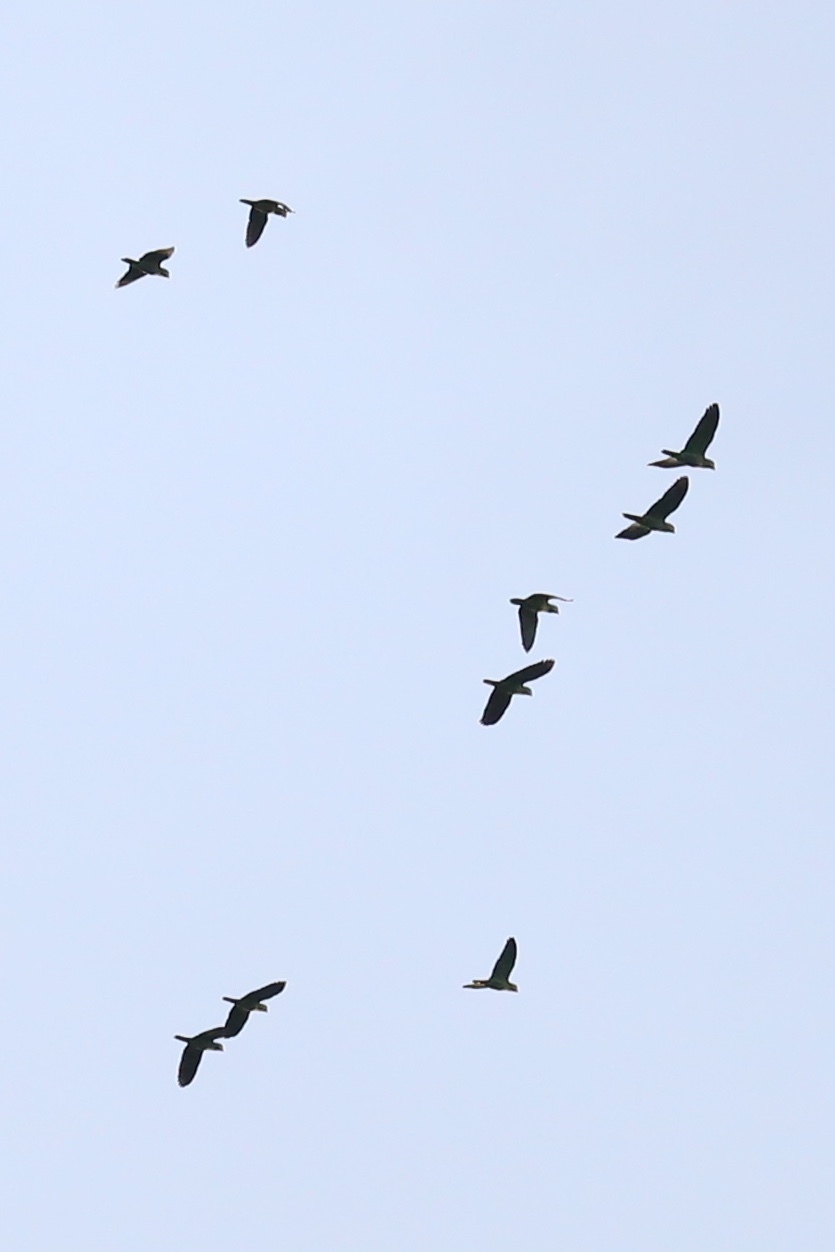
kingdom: Animalia
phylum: Chordata
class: Aves
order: Psittaciformes
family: Psittacidae
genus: Amazona
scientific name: Amazona
